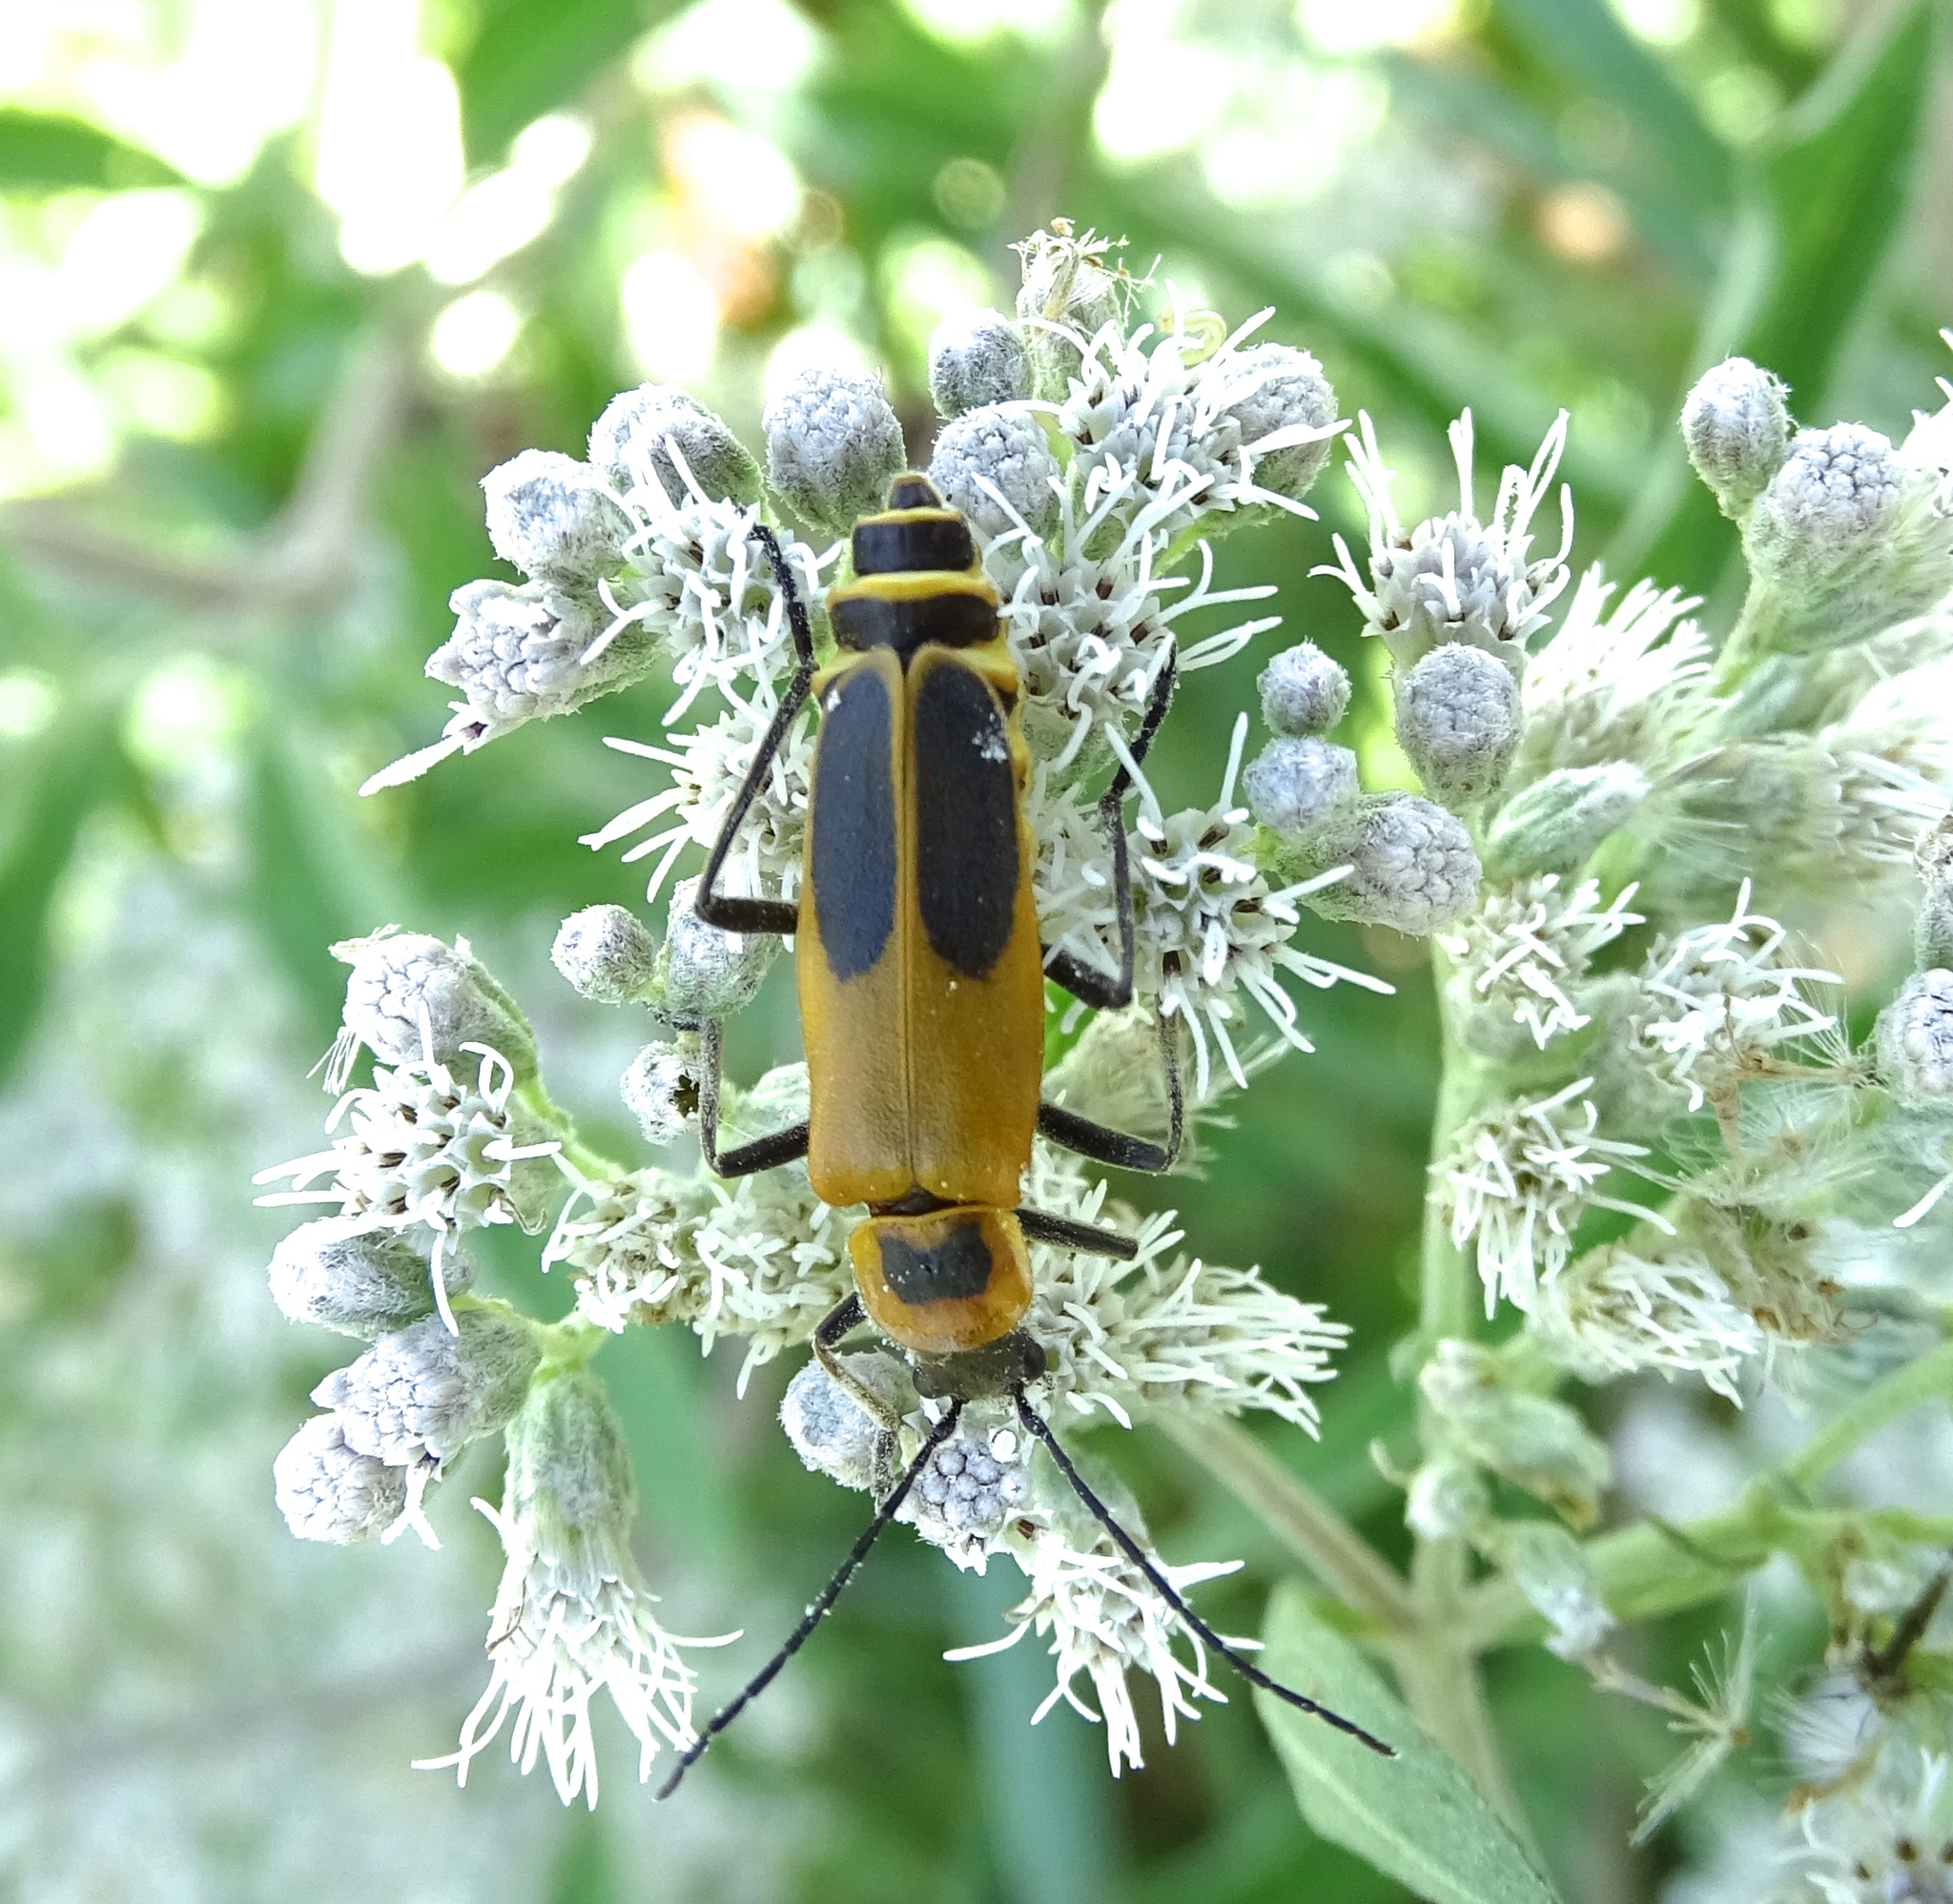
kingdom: Animalia
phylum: Arthropoda
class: Insecta
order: Coleoptera
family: Cantharidae
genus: Chauliognathus
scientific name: Chauliognathus pensylvanicus
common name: Goldenrod soldier beetle
